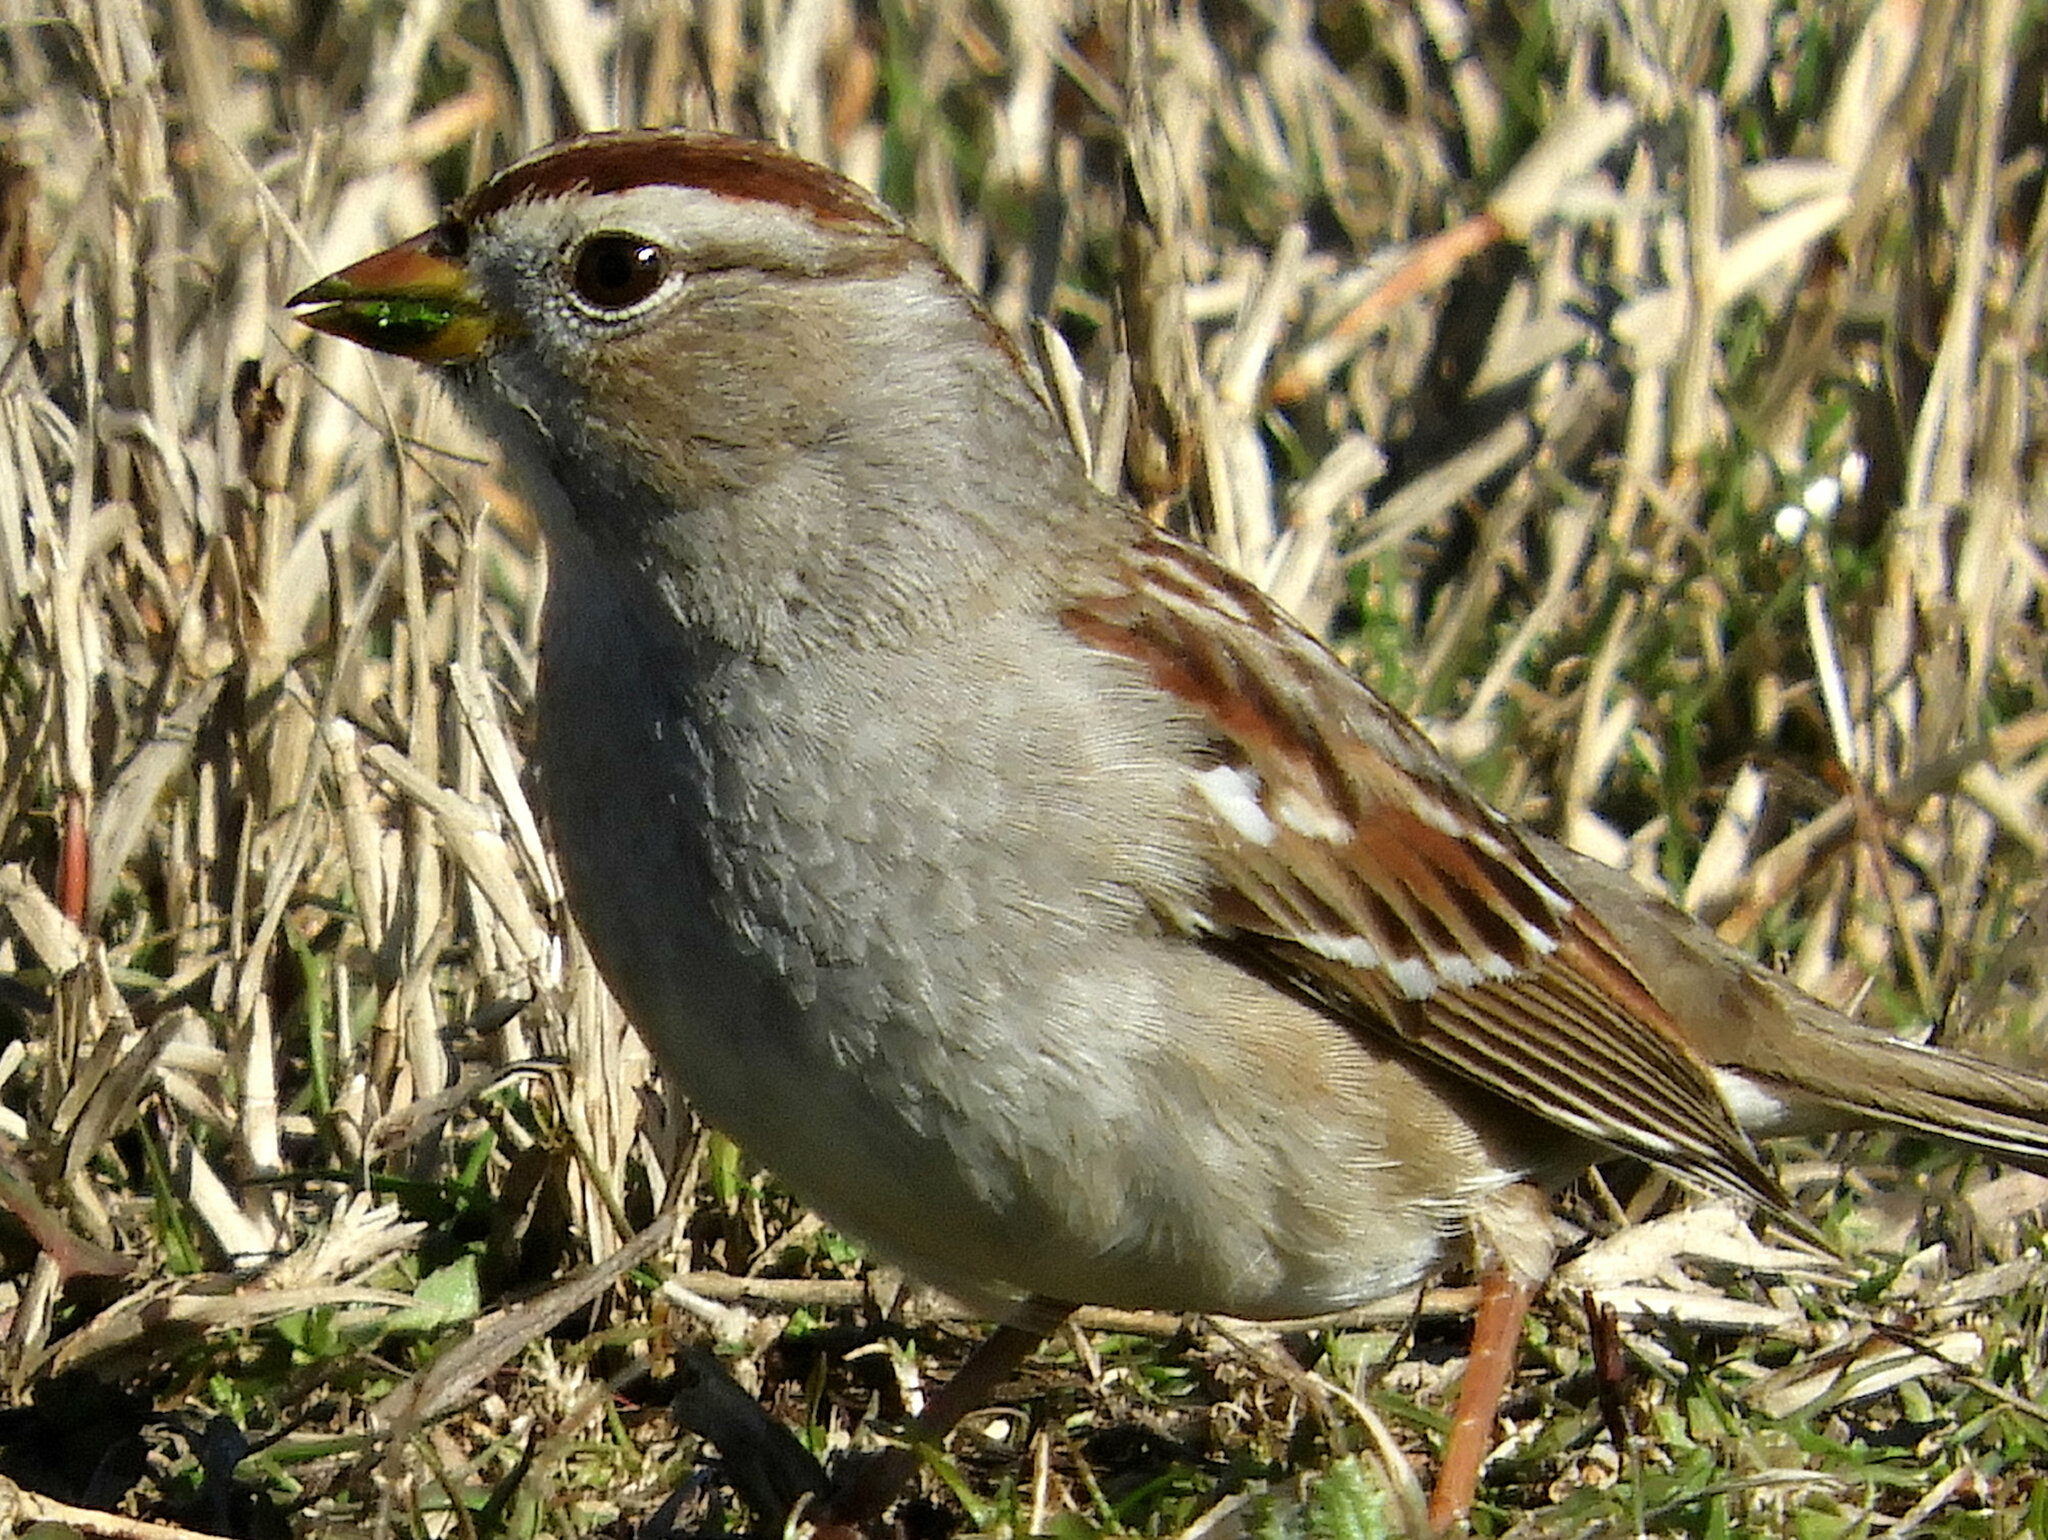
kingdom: Animalia
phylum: Chordata
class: Aves
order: Passeriformes
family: Passerellidae
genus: Zonotrichia
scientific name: Zonotrichia leucophrys
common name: White-crowned sparrow
